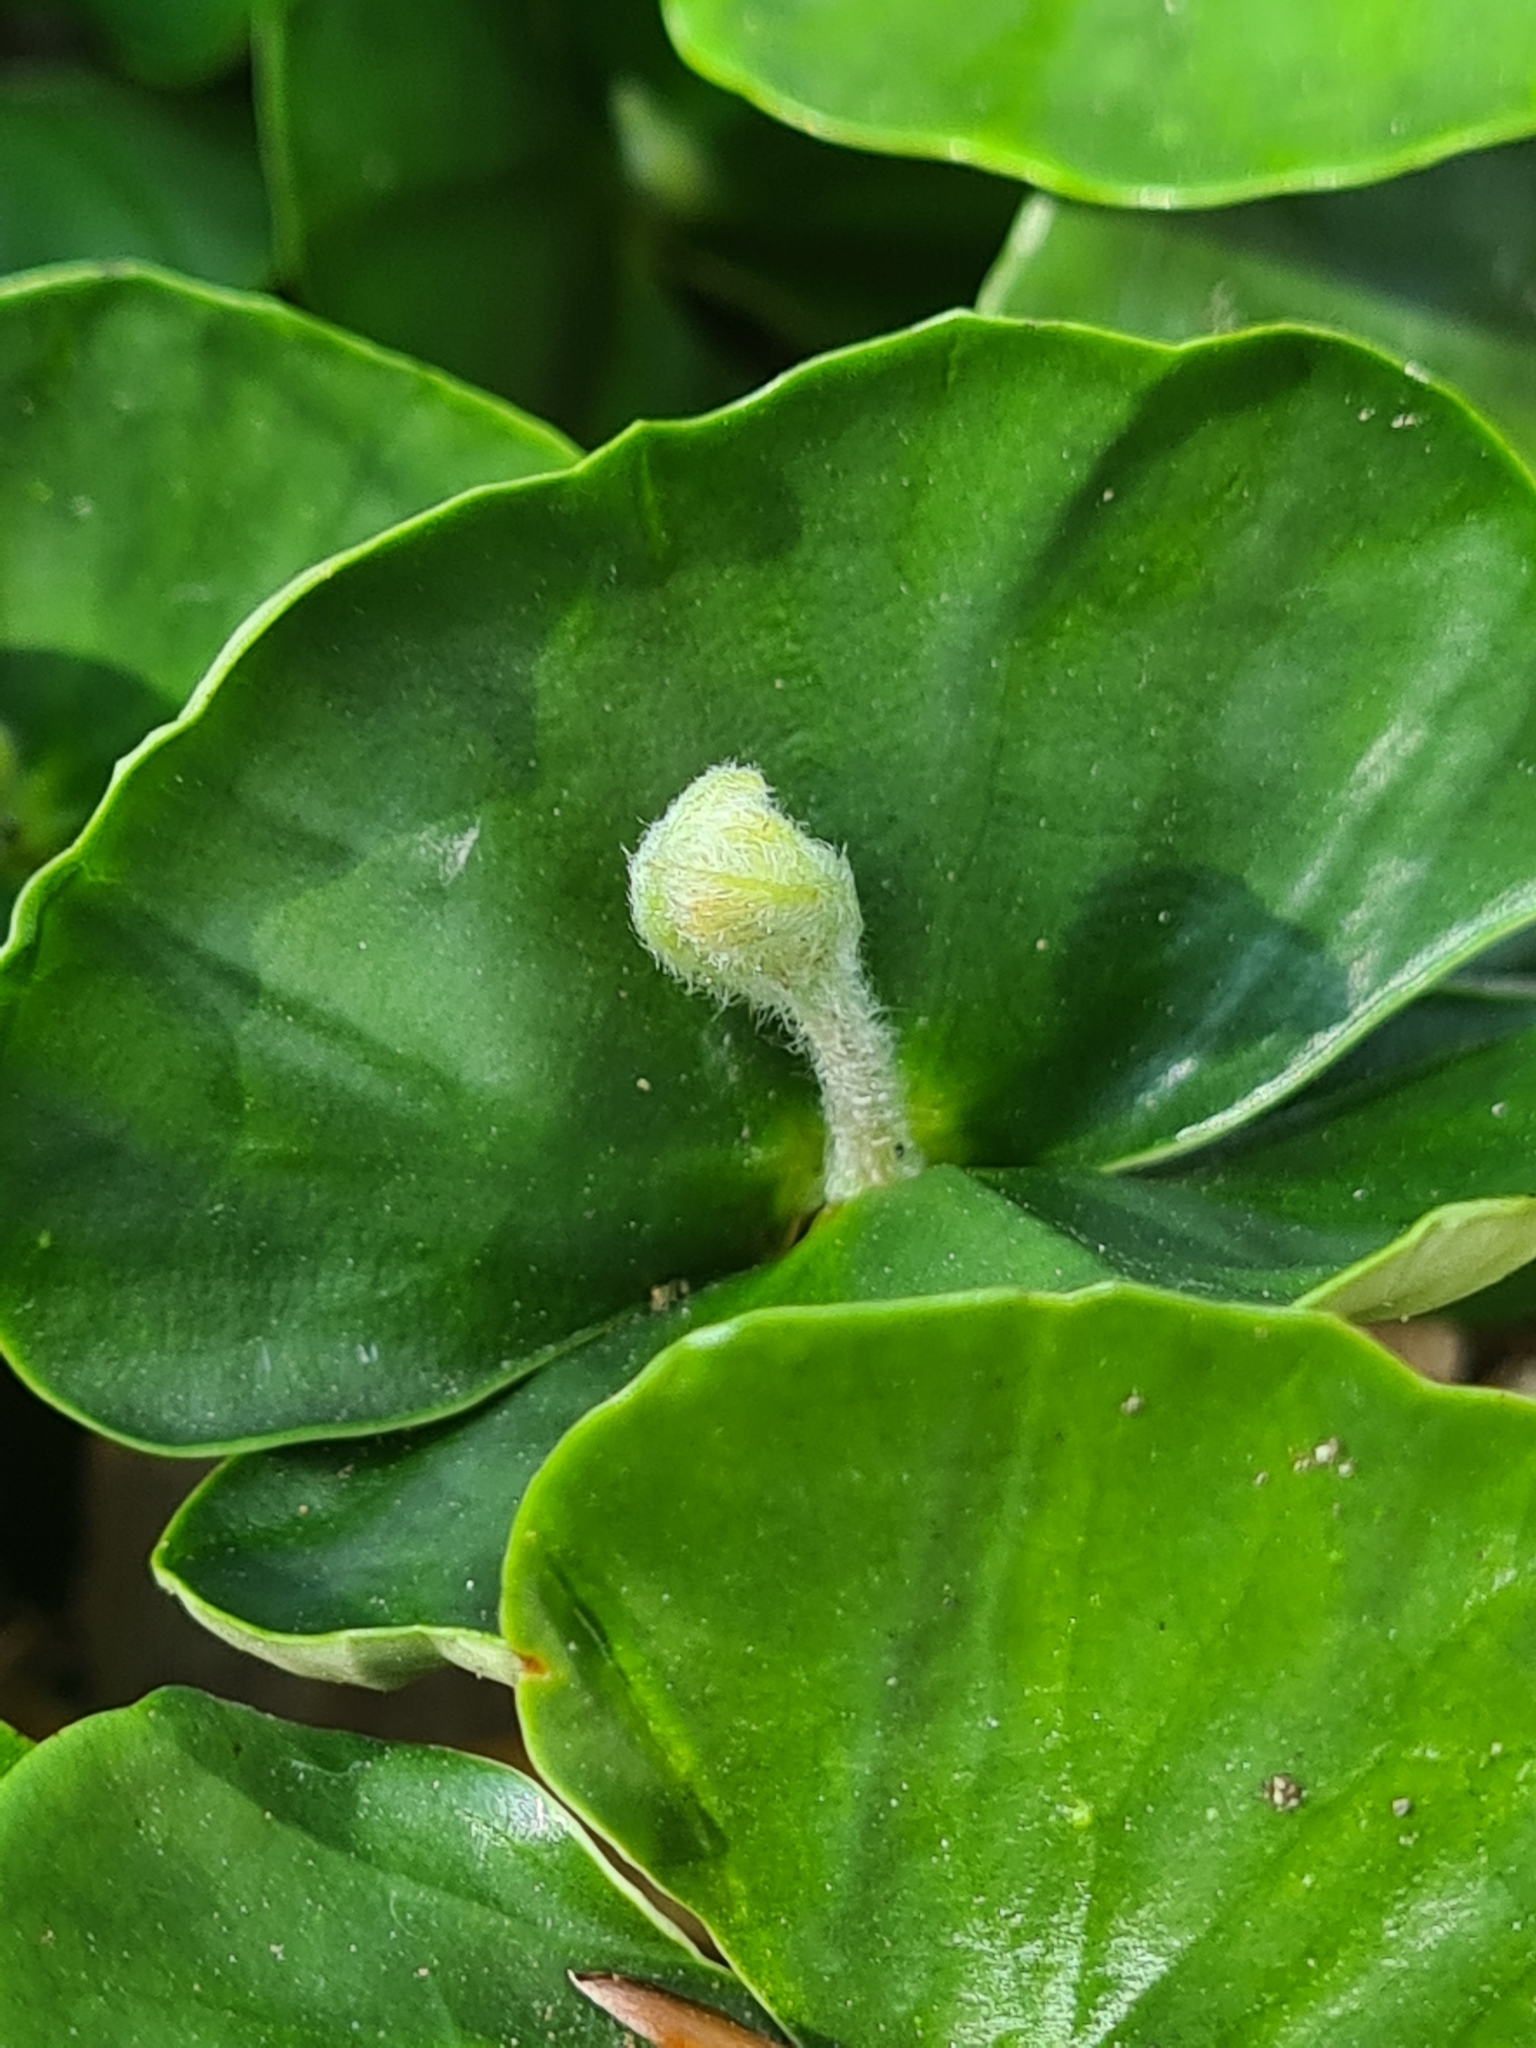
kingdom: Plantae
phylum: Tracheophyta
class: Magnoliopsida
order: Fagales
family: Fagaceae
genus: Fagus
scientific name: Fagus sylvatica
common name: Beech
